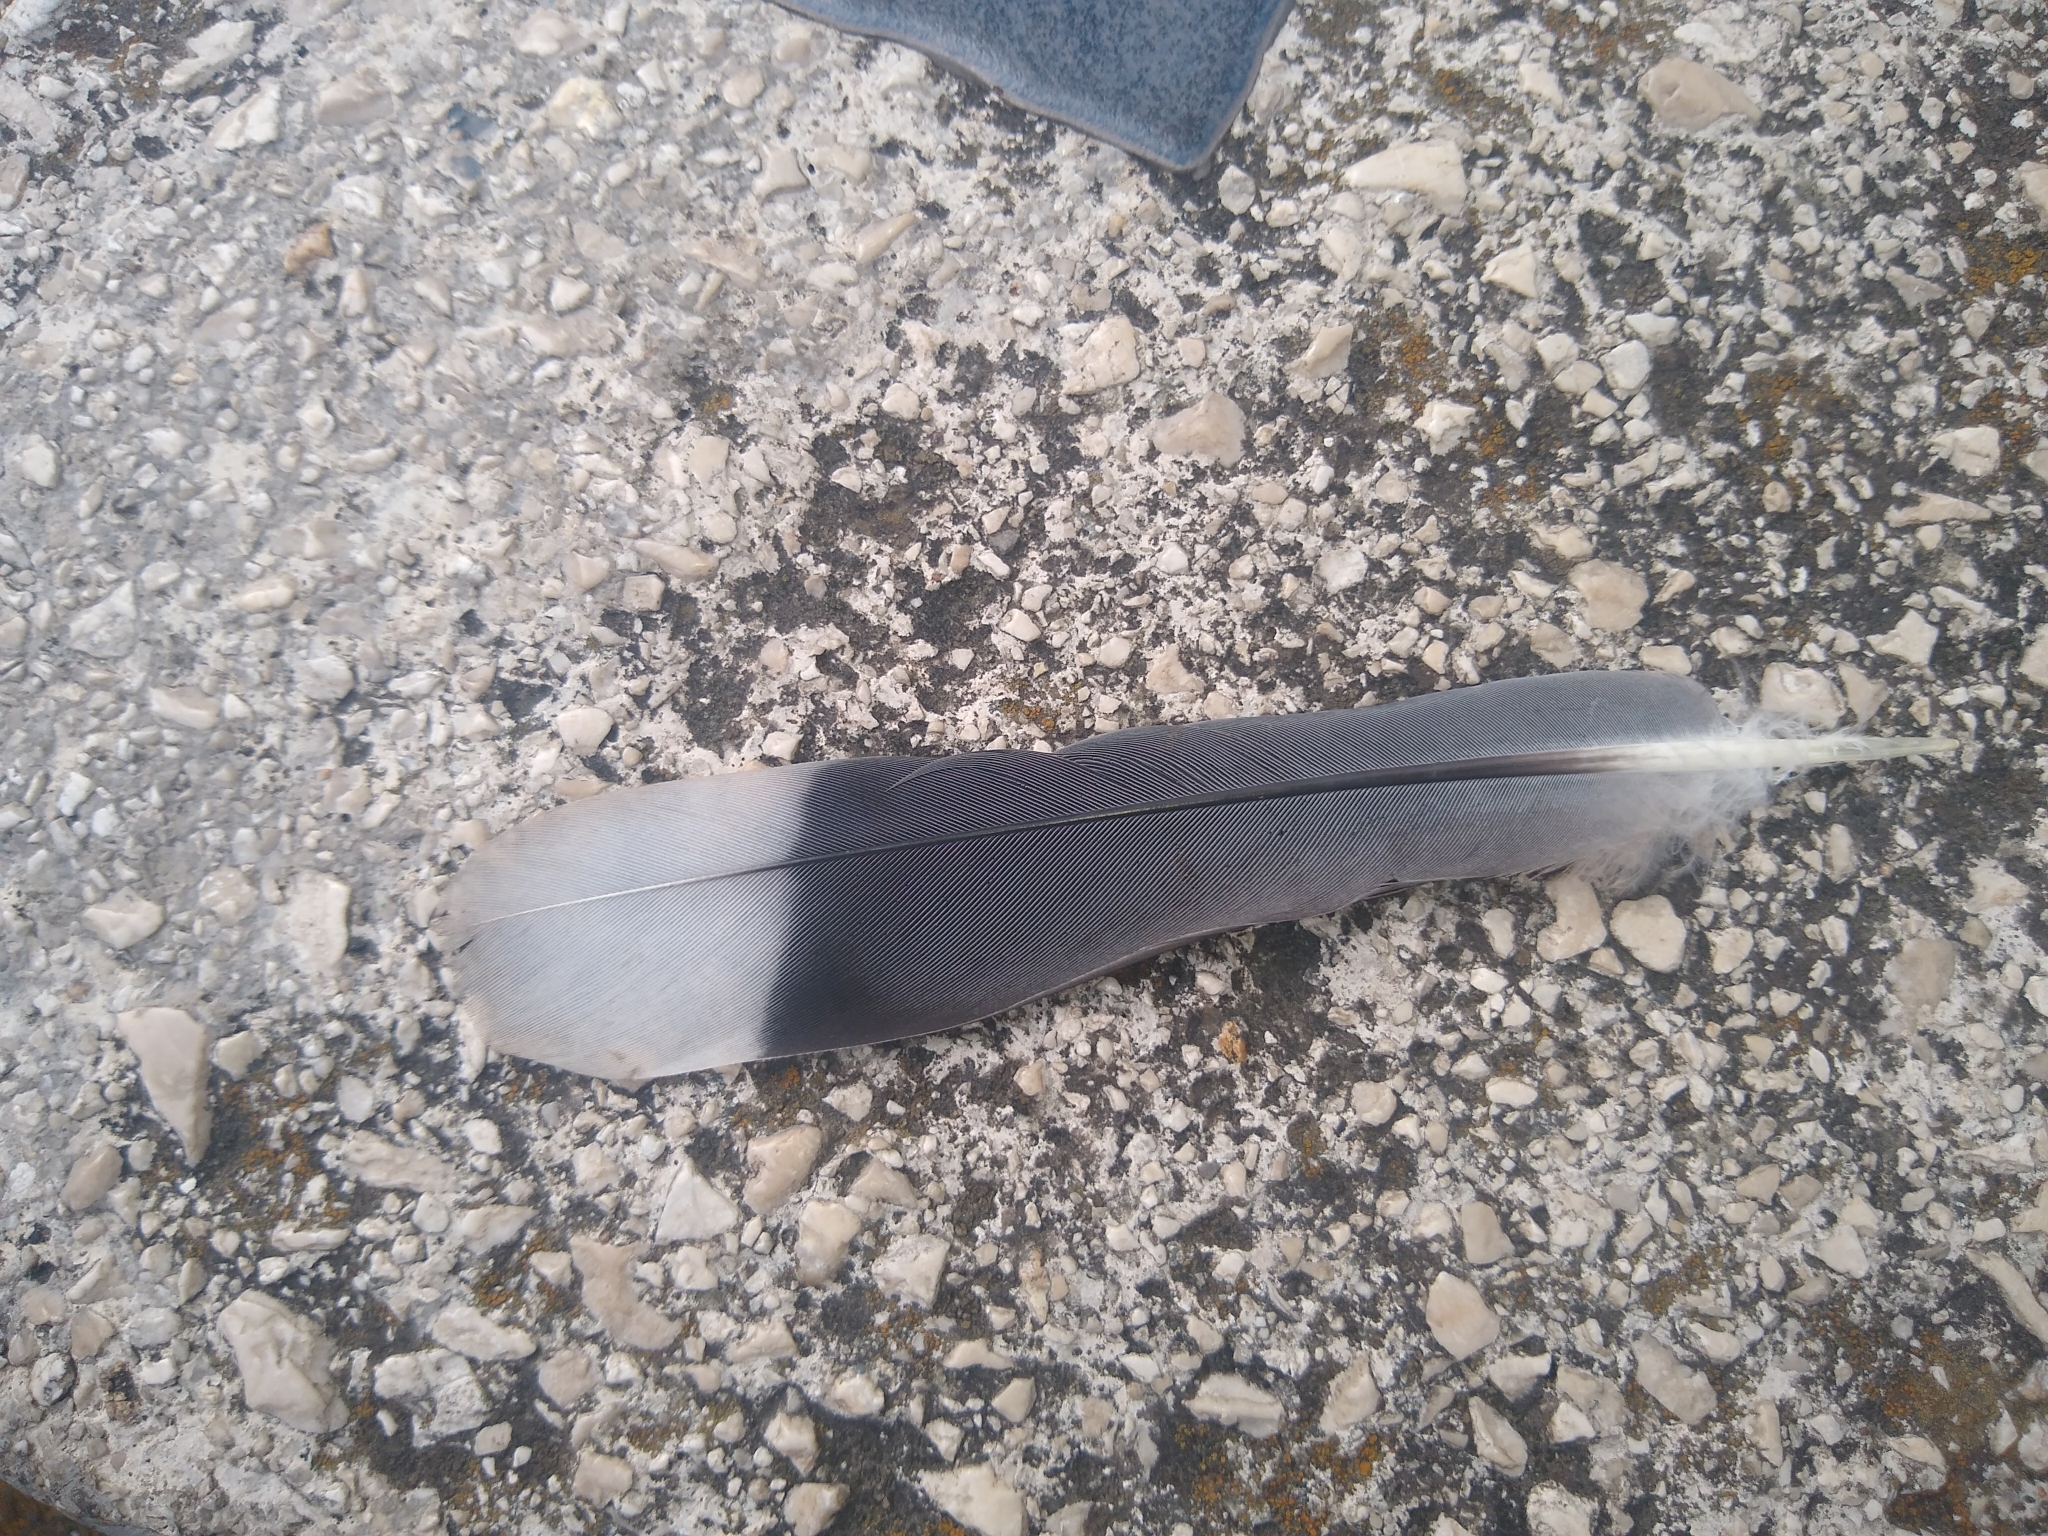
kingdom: Animalia
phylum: Chordata
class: Aves
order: Columbiformes
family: Columbidae
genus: Zenaida
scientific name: Zenaida asiatica
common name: White-winged dove
